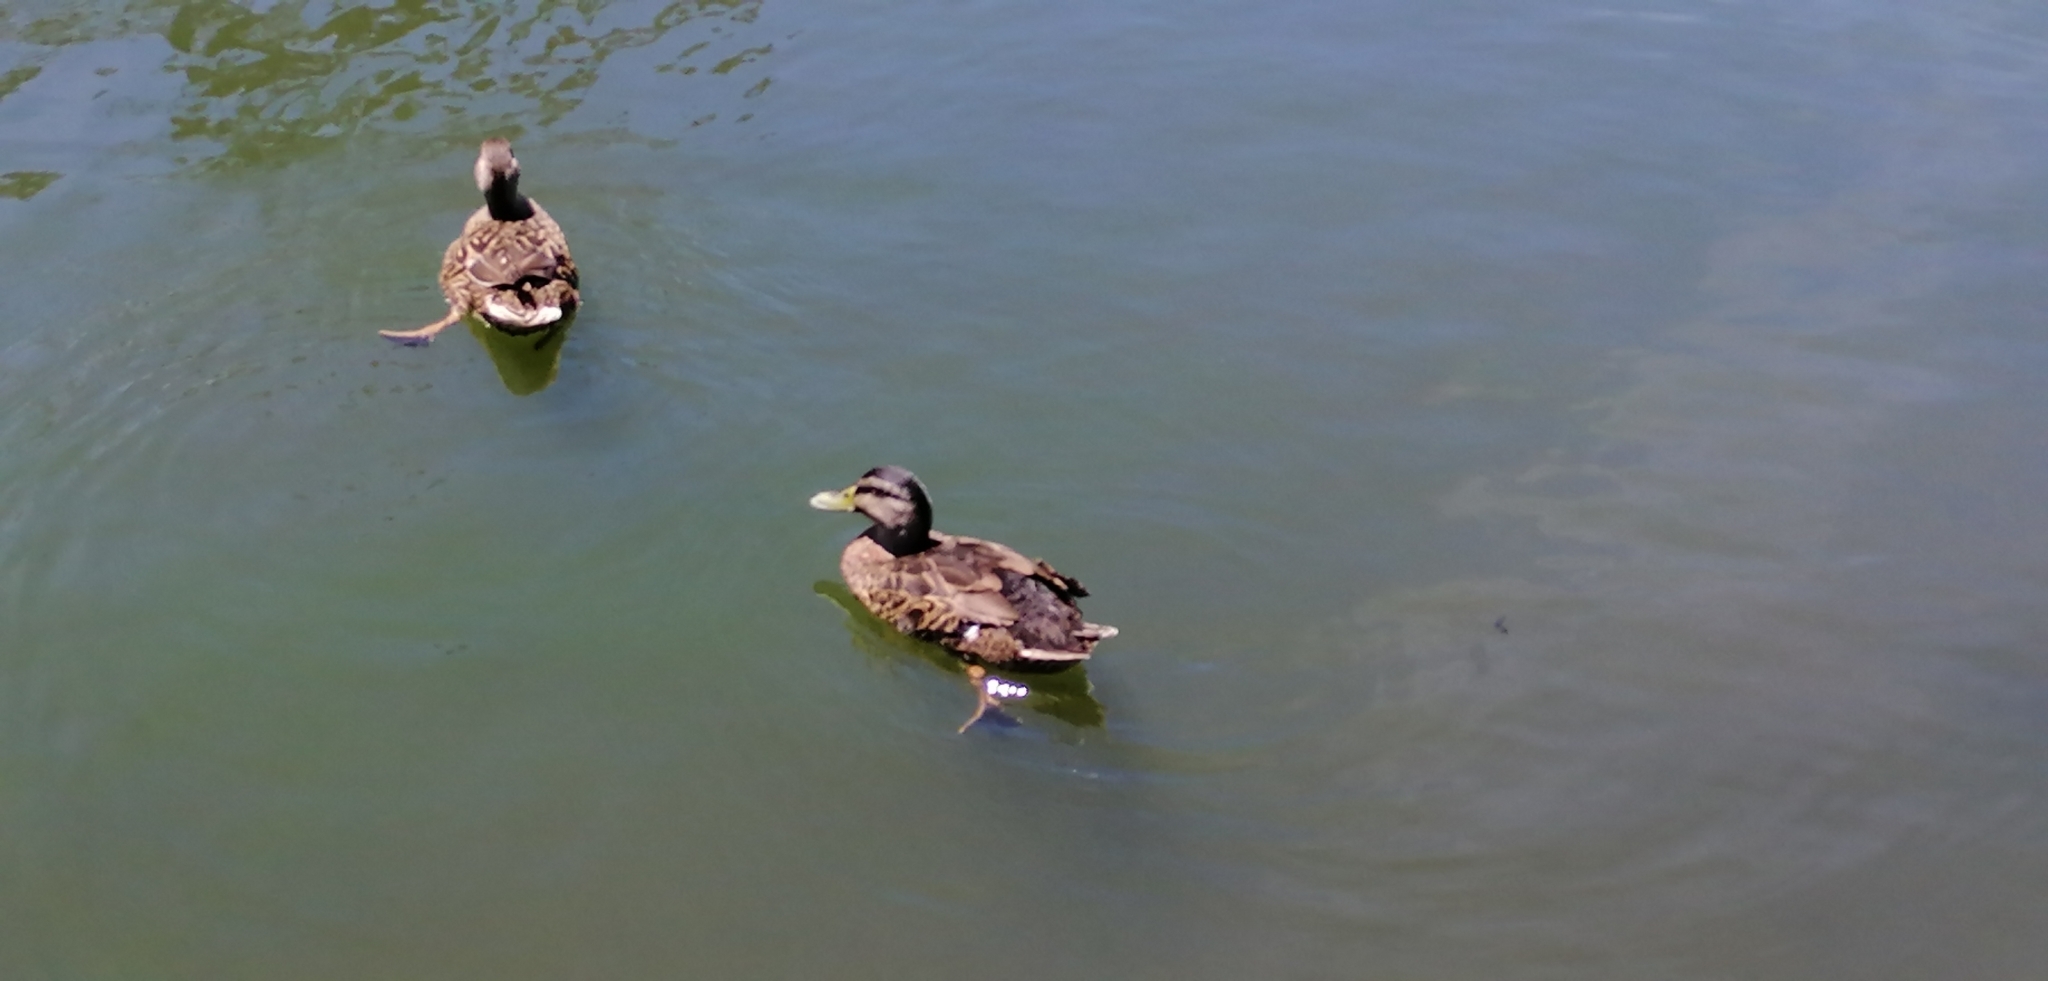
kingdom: Animalia
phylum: Chordata
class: Aves
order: Anseriformes
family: Anatidae
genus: Anas
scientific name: Anas
